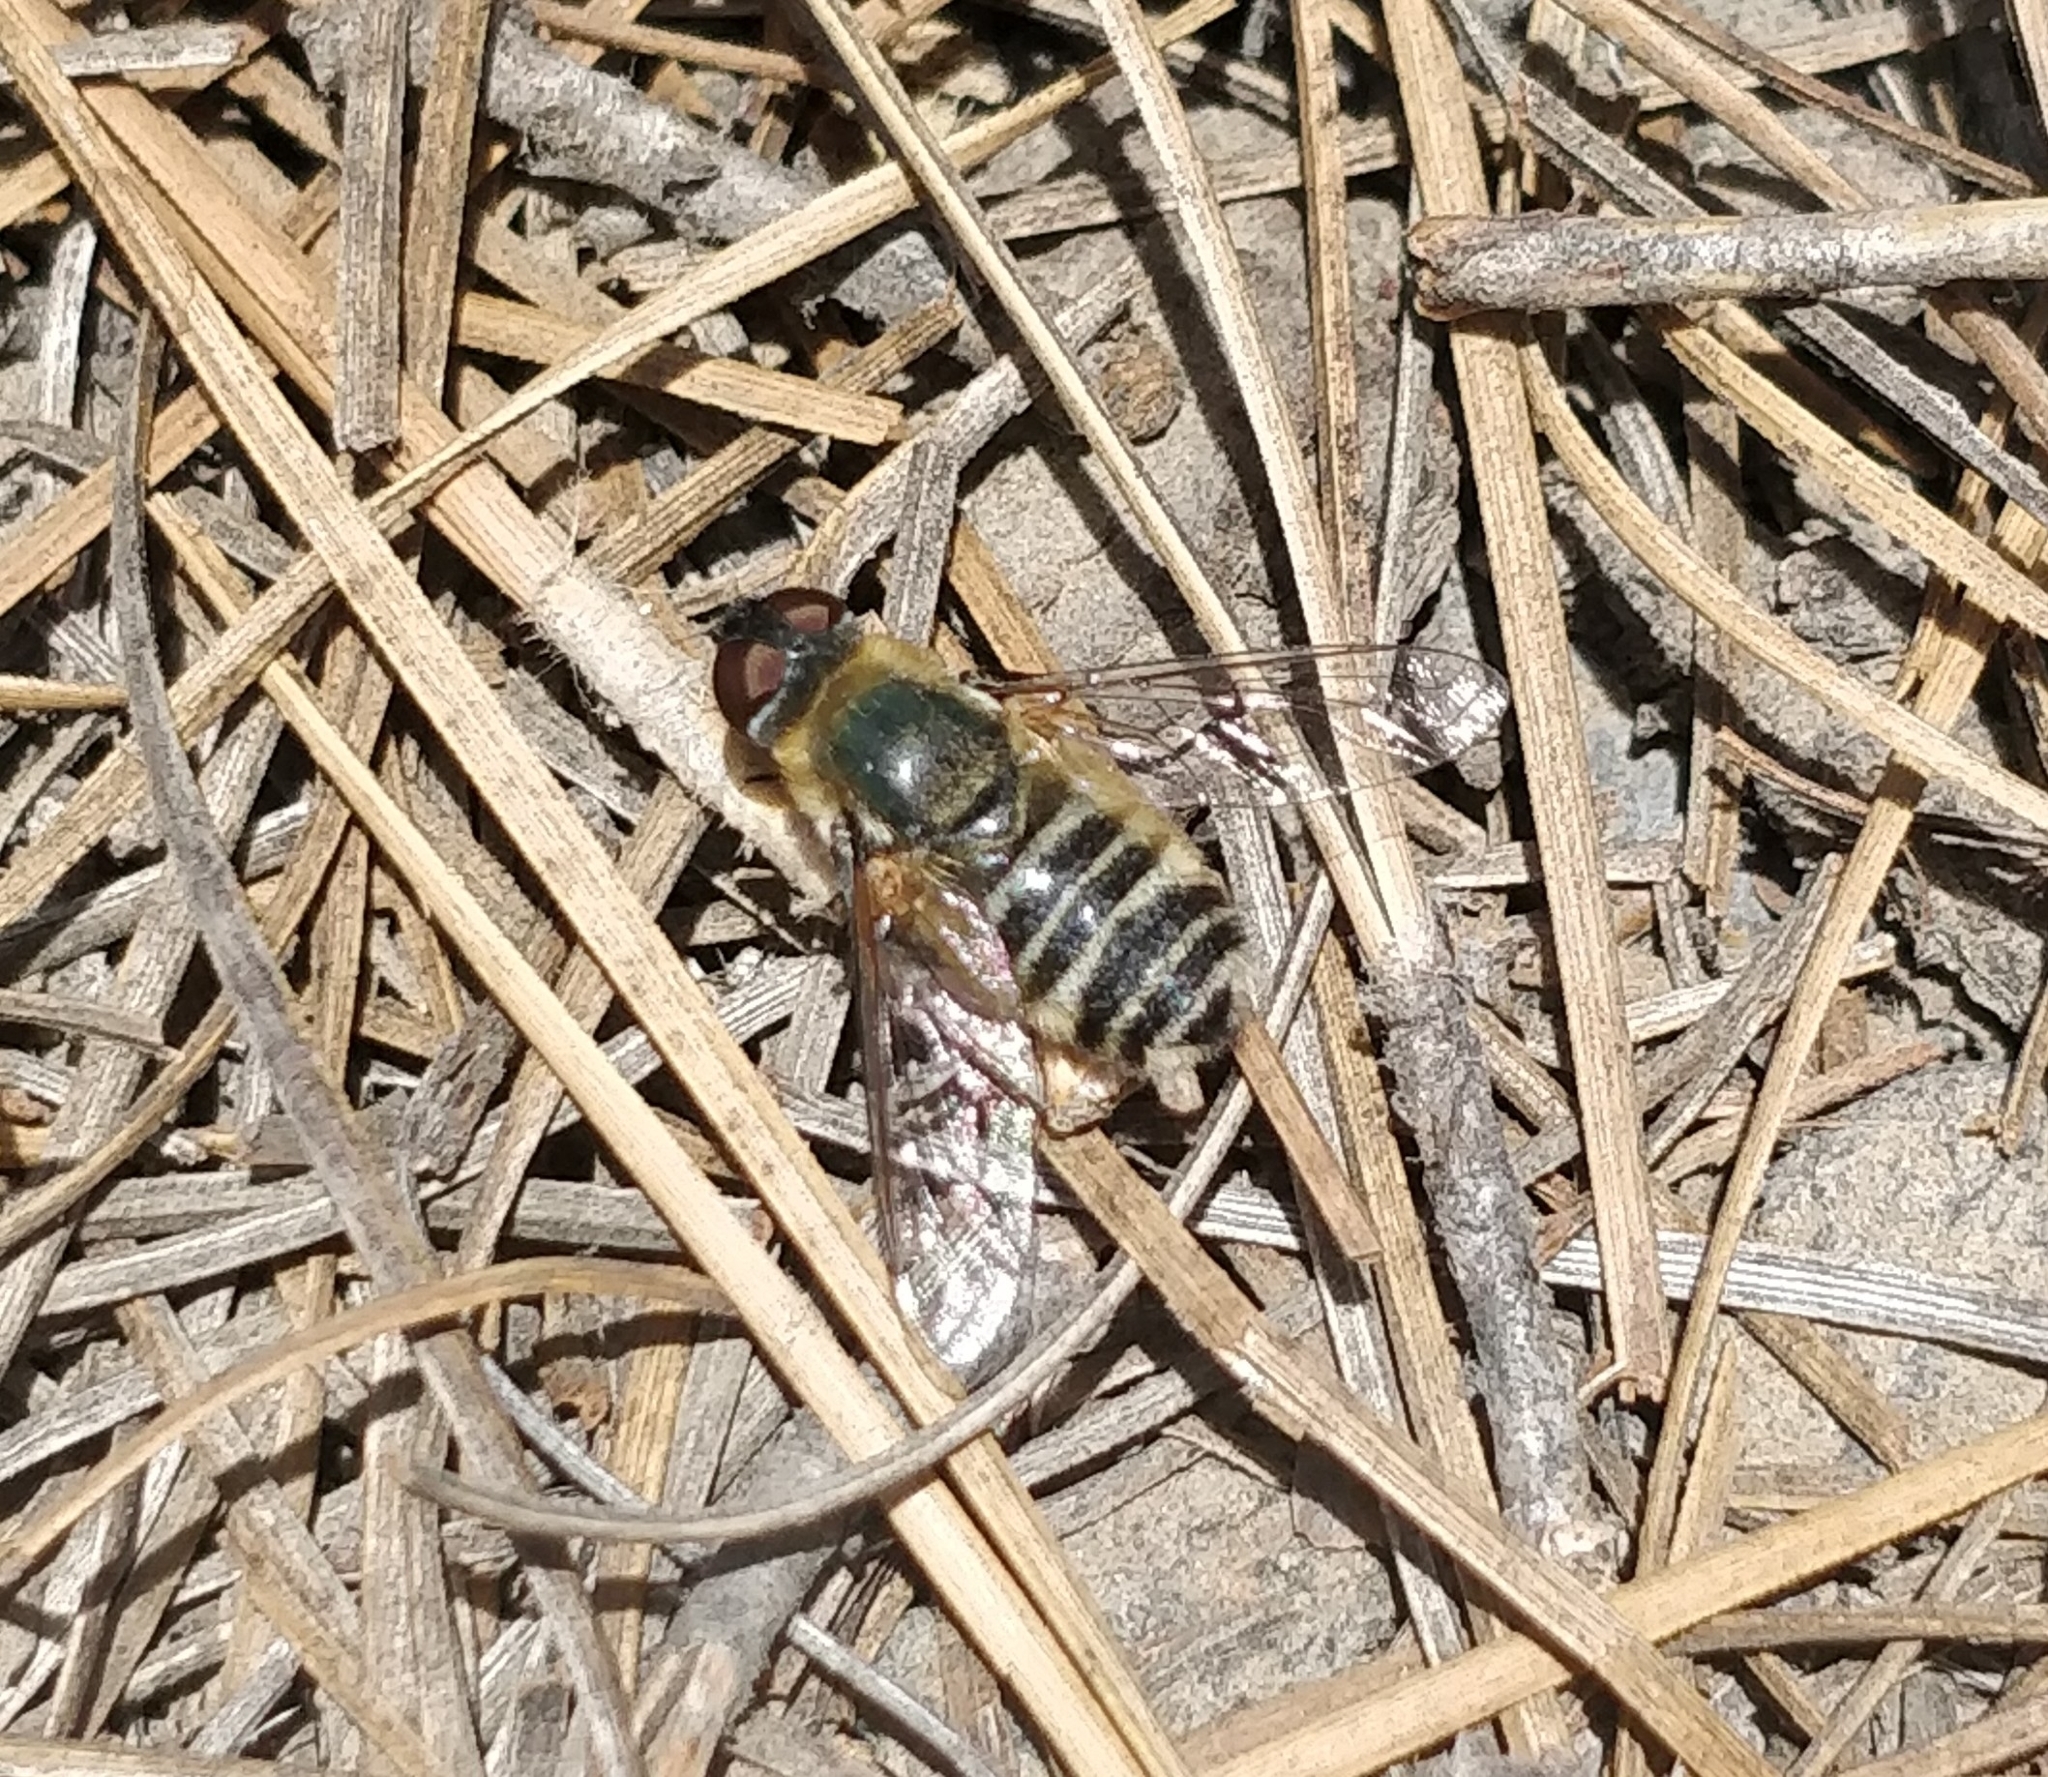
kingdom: Animalia
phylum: Arthropoda
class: Insecta
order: Diptera
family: Bombyliidae
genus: Villa
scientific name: Villa nigrifrons
